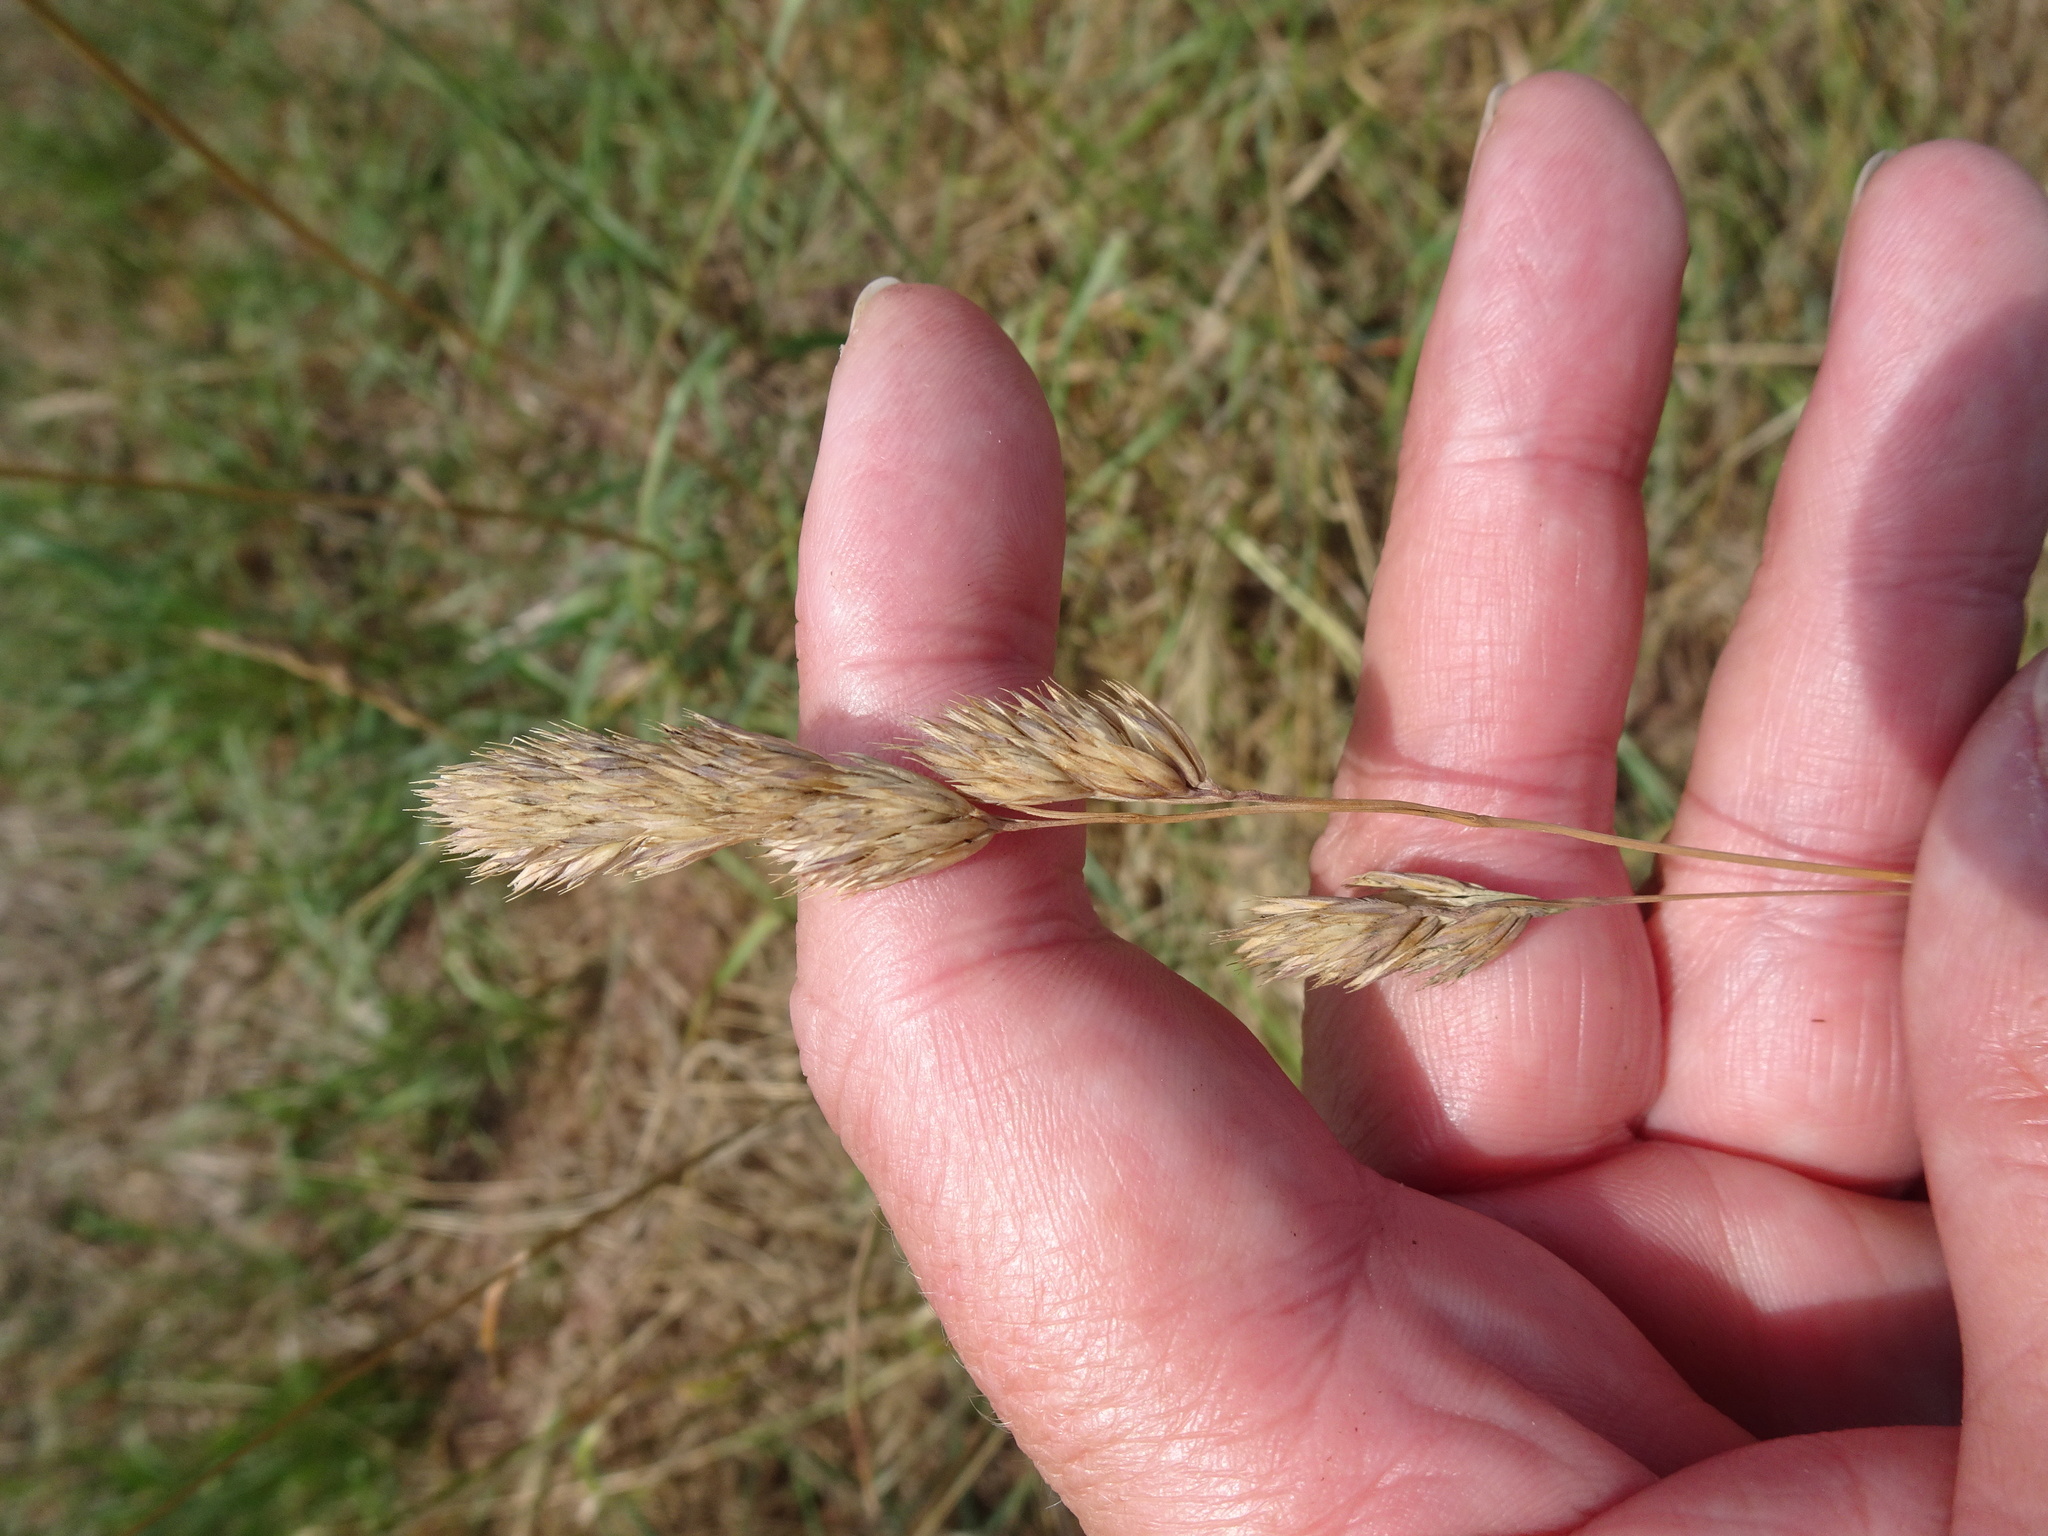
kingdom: Plantae
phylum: Tracheophyta
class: Liliopsida
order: Poales
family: Poaceae
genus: Dactylis
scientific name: Dactylis glomerata
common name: Orchardgrass
